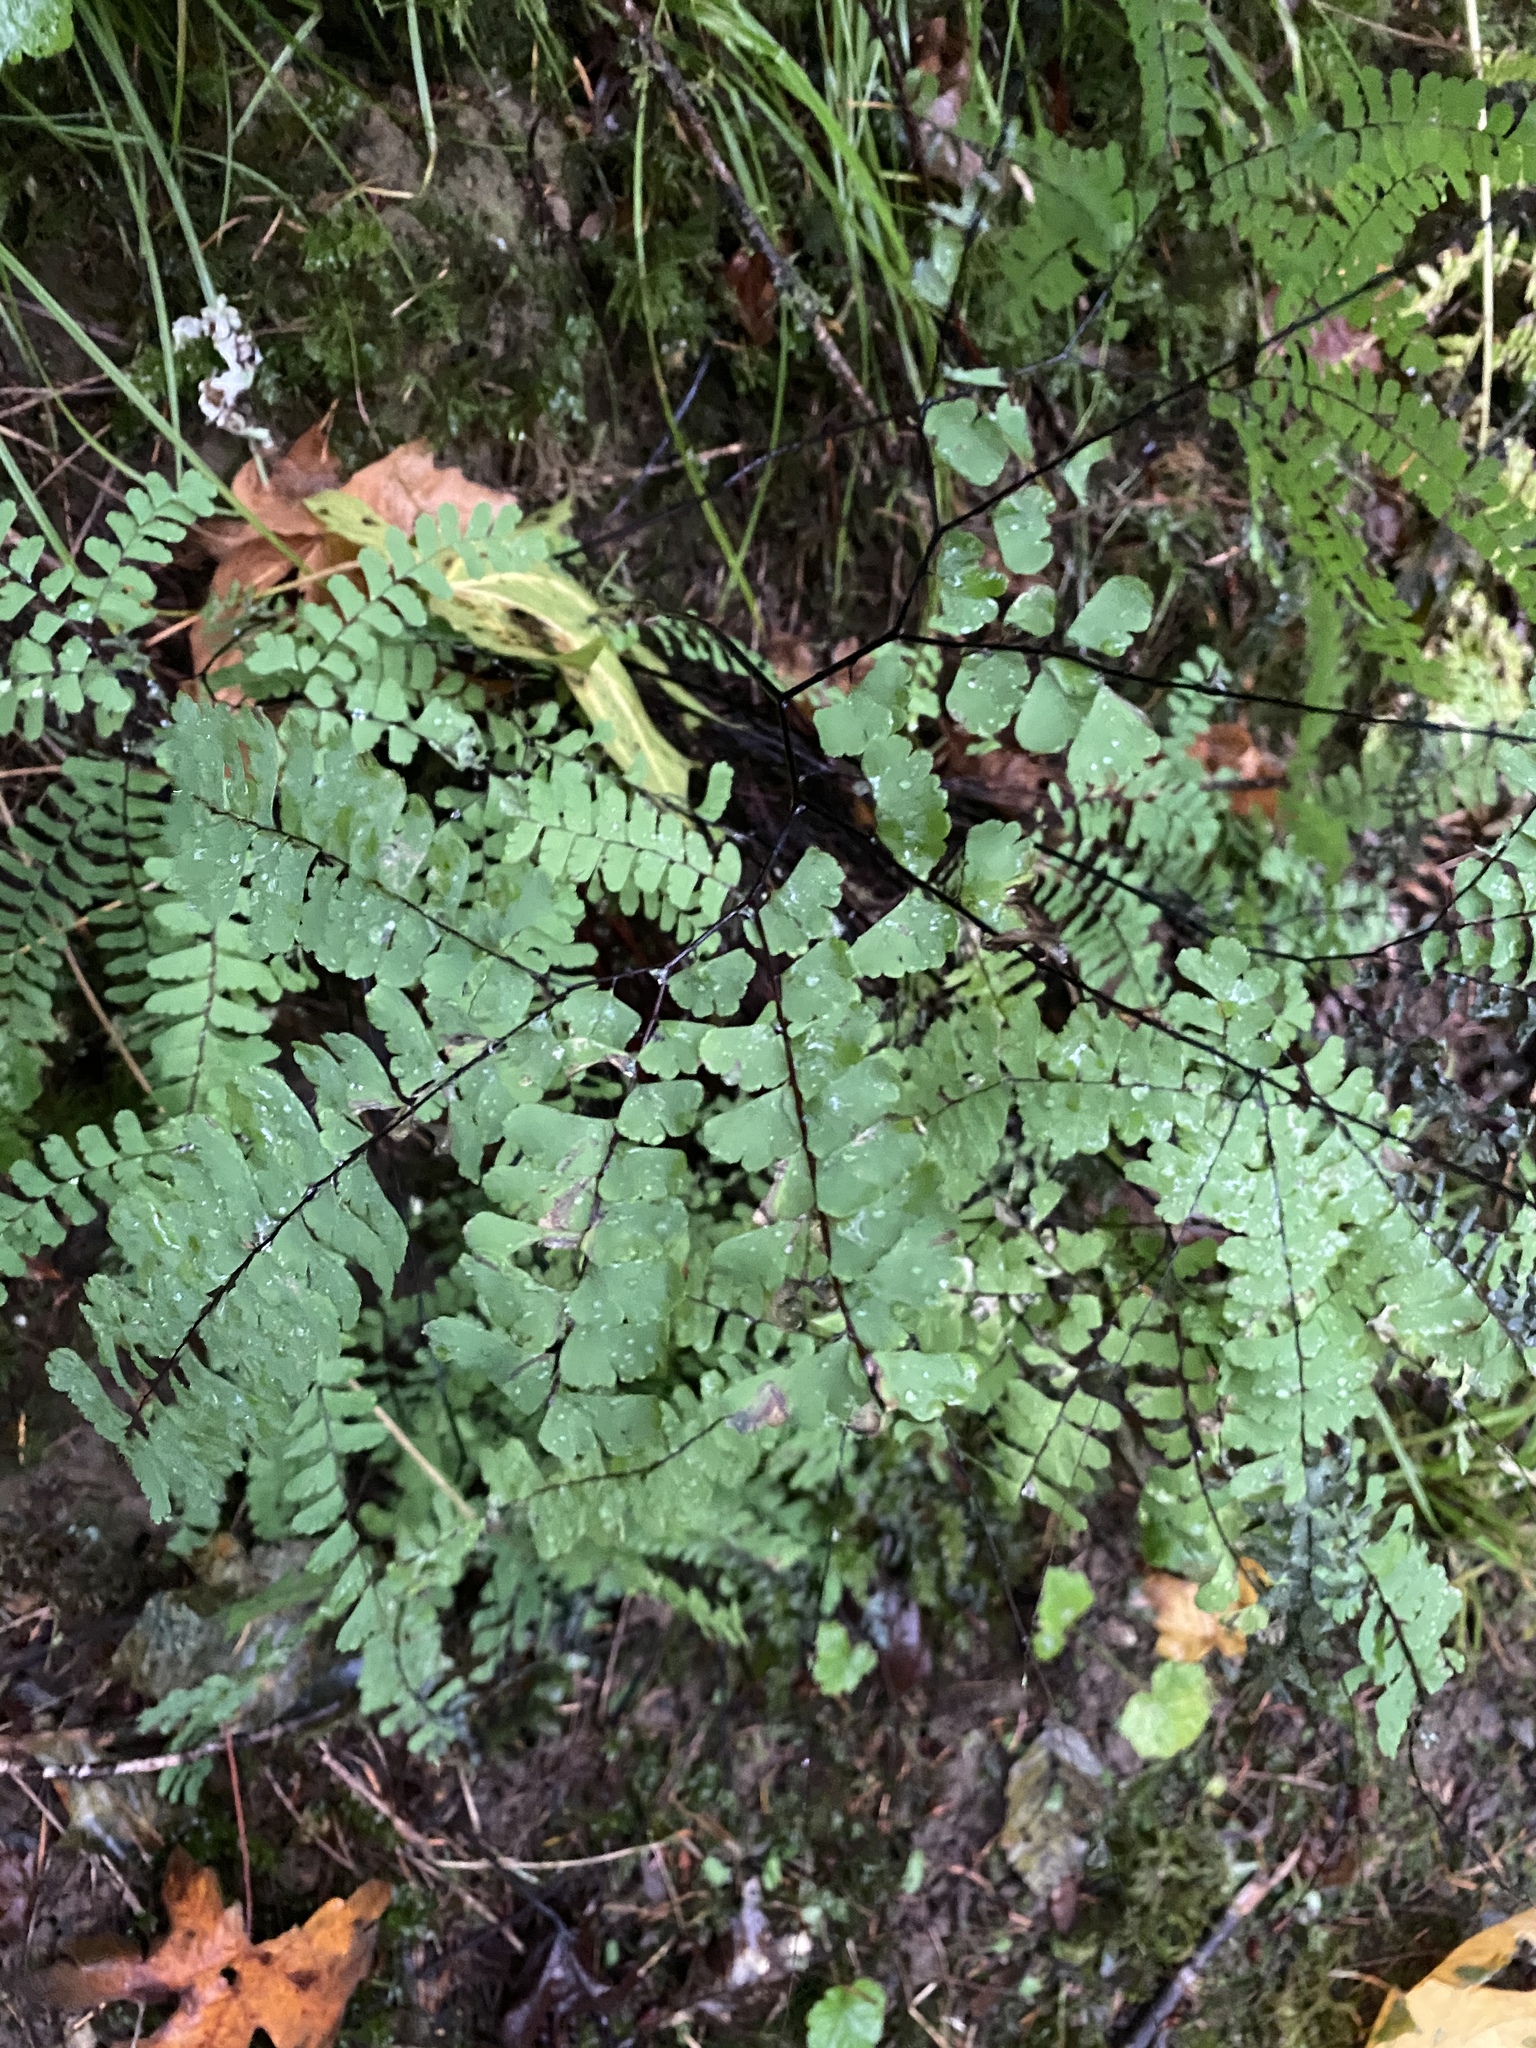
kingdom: Plantae
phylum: Tracheophyta
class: Polypodiopsida
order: Polypodiales
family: Pteridaceae
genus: Adiantum
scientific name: Adiantum aleuticum
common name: Aleutian maidenhair fern
